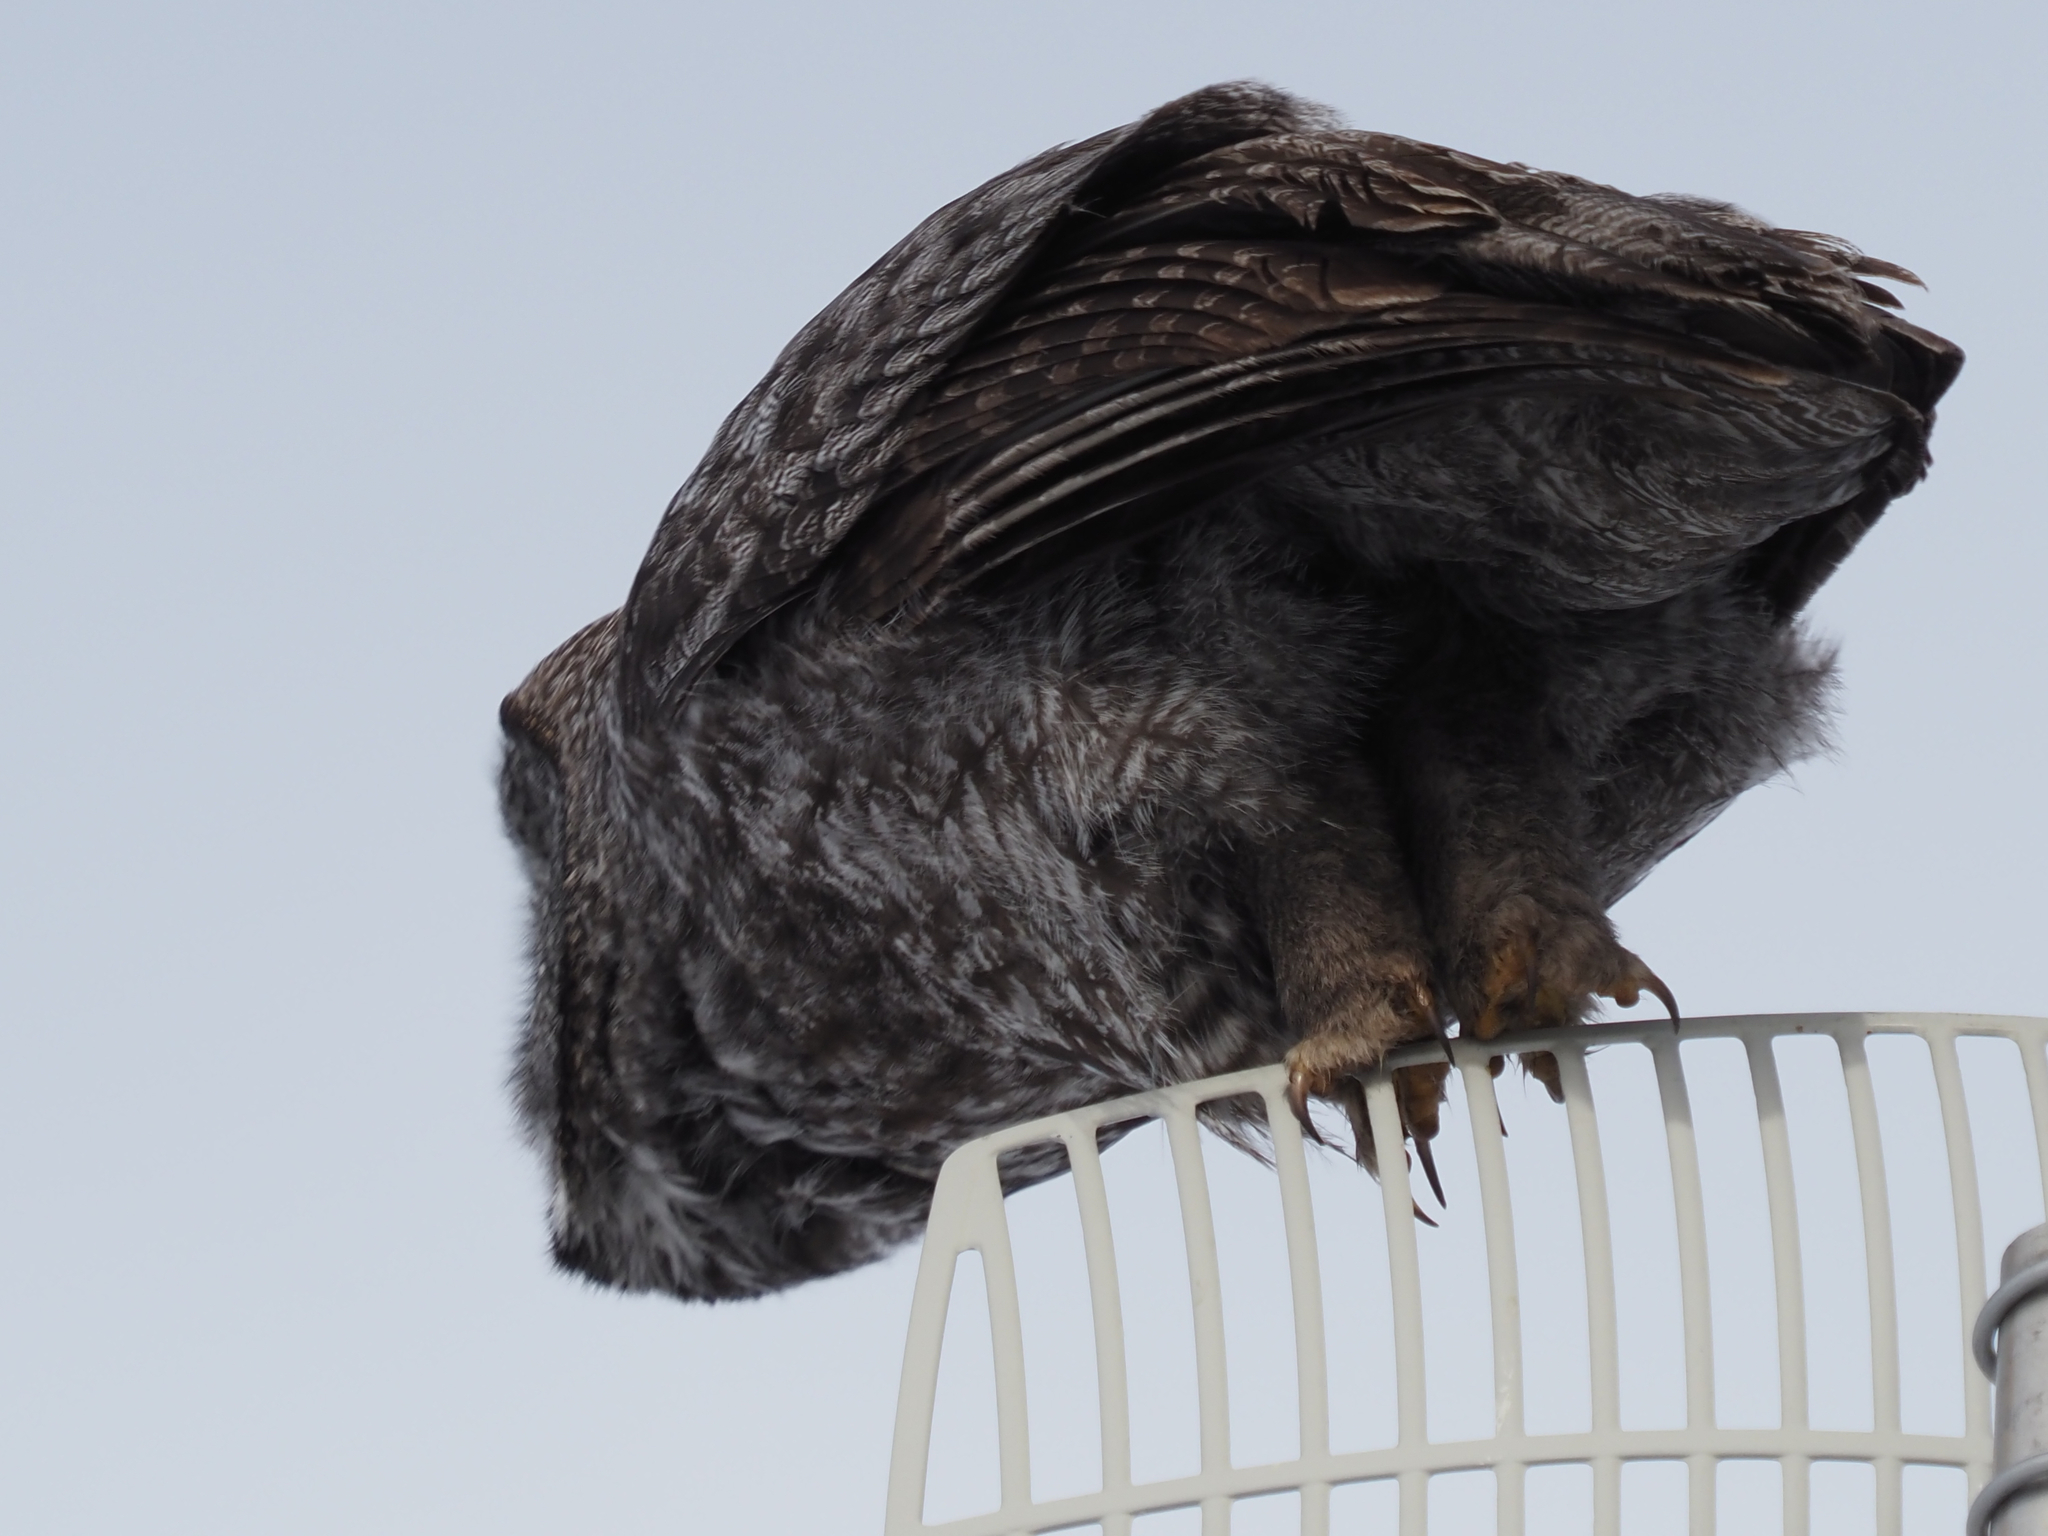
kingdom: Animalia
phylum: Chordata
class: Aves
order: Strigiformes
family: Strigidae
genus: Strix
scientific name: Strix nebulosa
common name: Great grey owl
